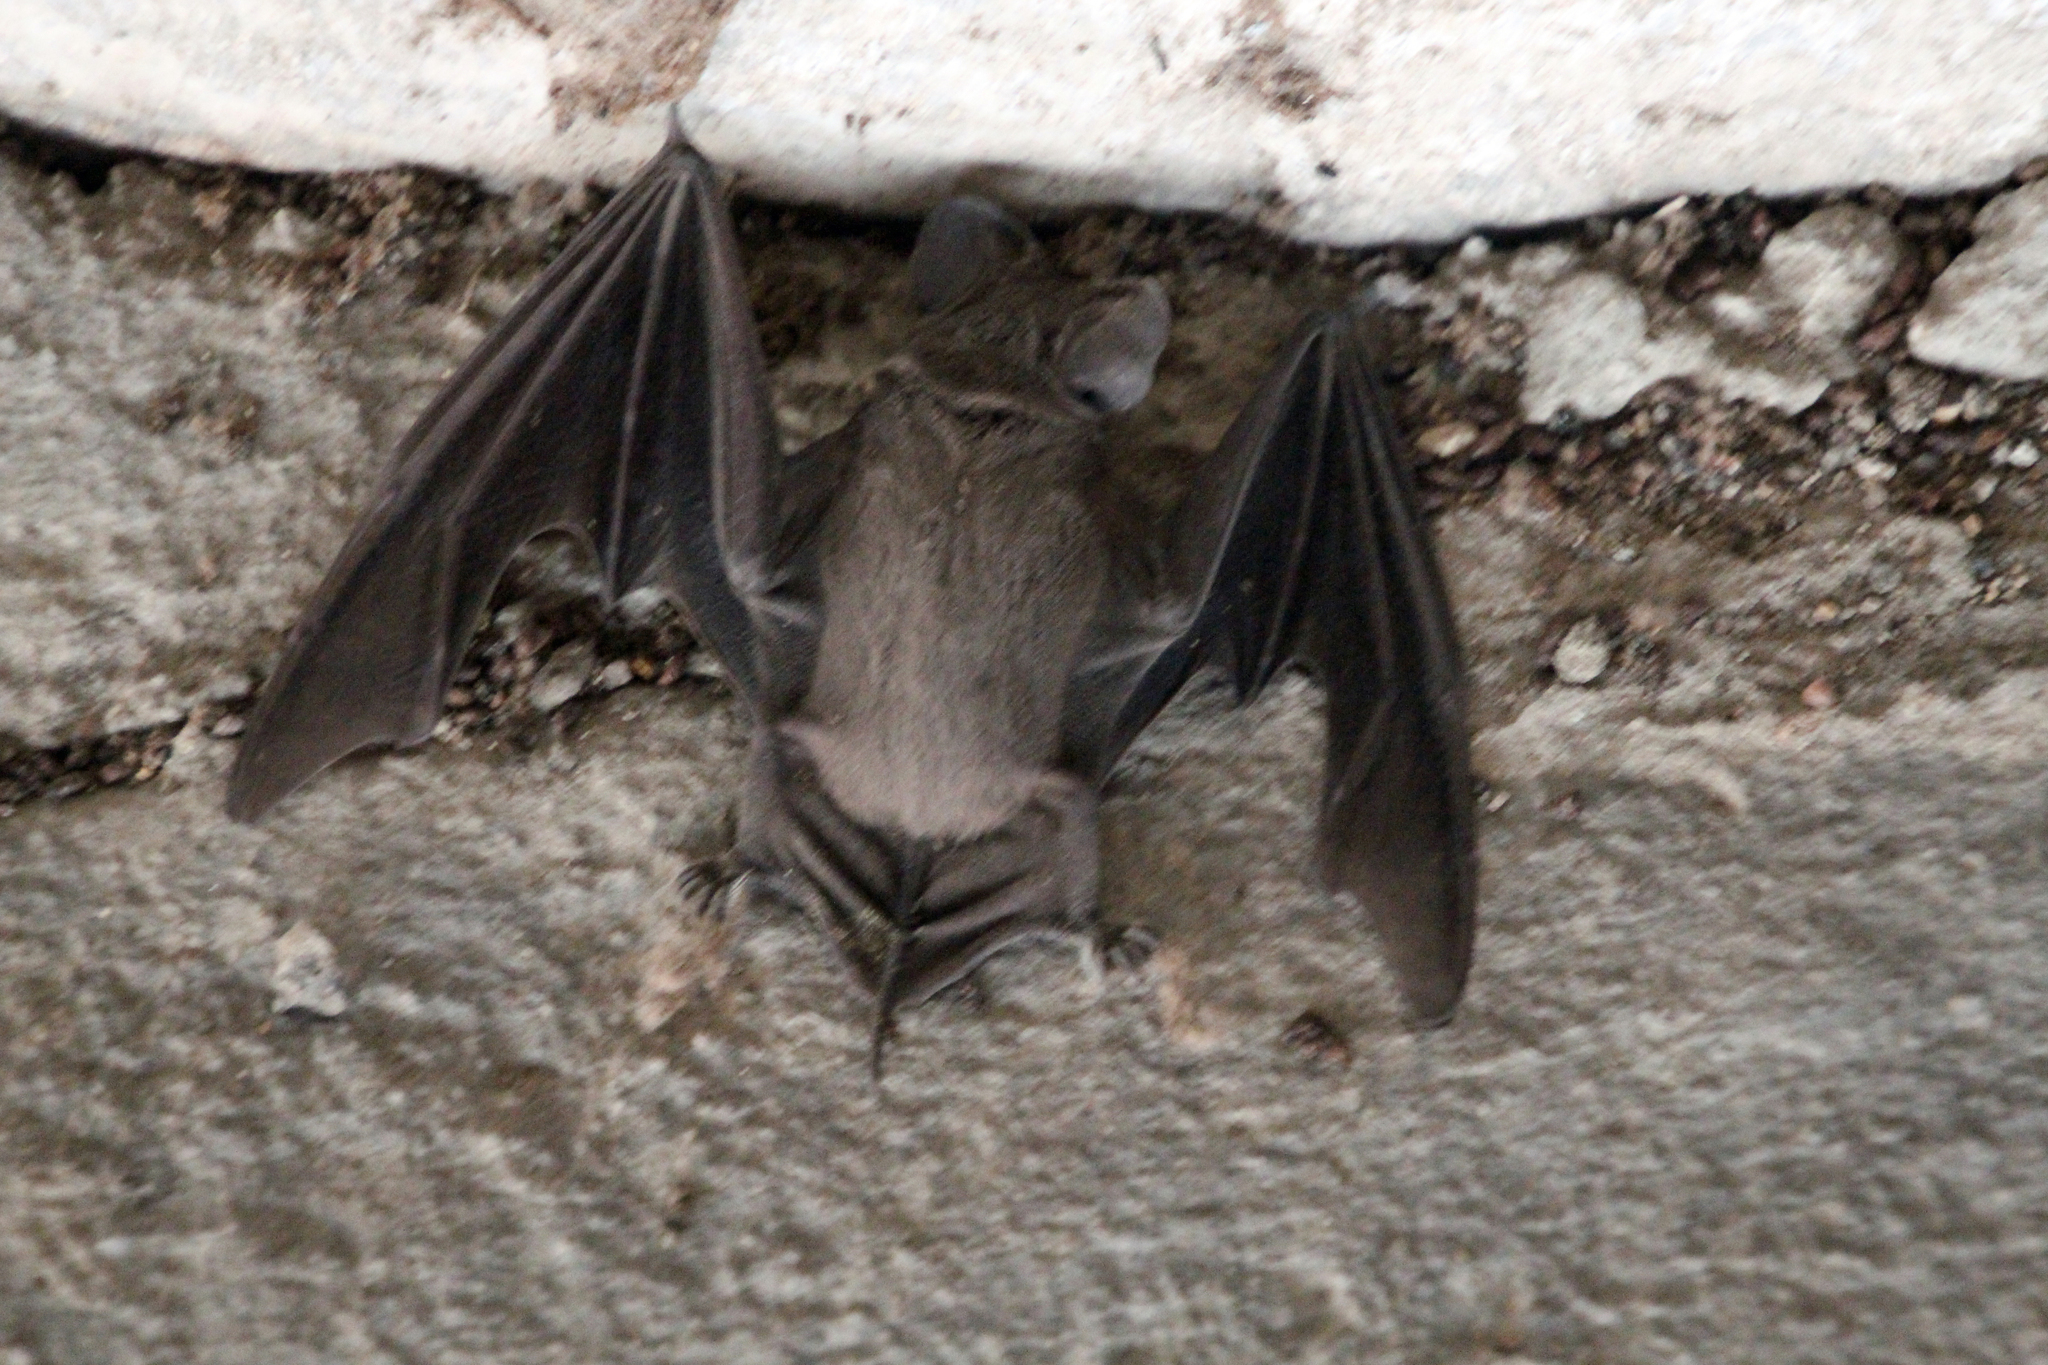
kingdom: Animalia
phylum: Chordata
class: Mammalia
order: Chiroptera
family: Molossidae
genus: Tadarida
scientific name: Tadarida brasiliensis
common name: Mexican free-tailed bat
